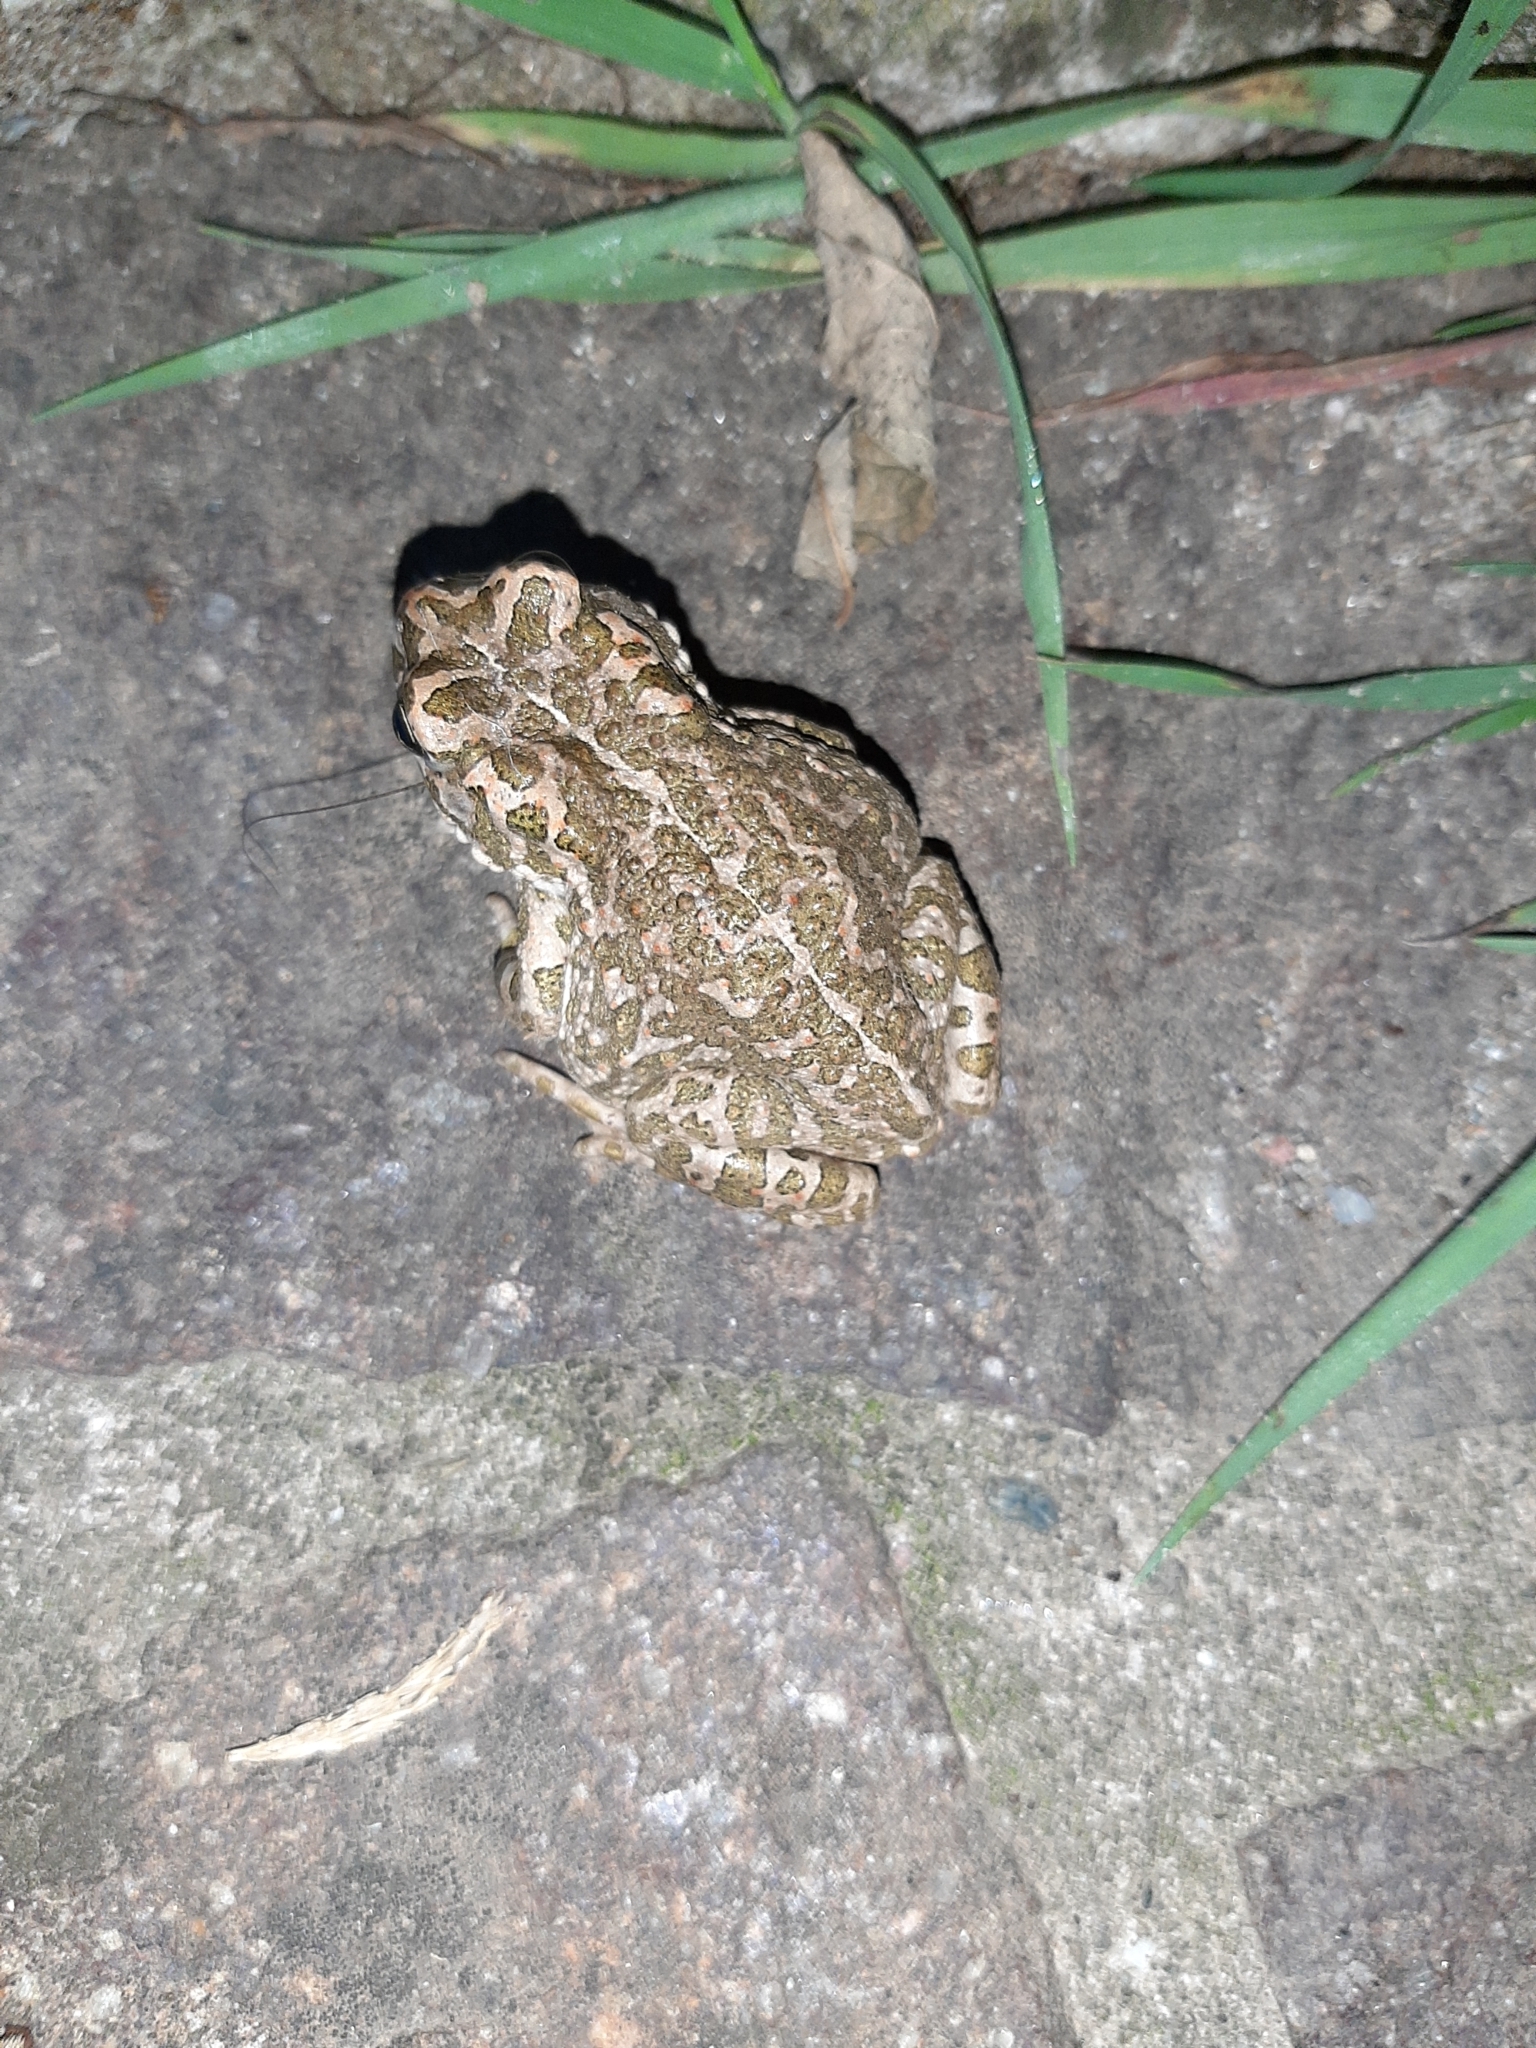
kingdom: Animalia
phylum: Chordata
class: Amphibia
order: Anura
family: Bufonidae
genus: Bufotes
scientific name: Bufotes viridis
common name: European green toad
